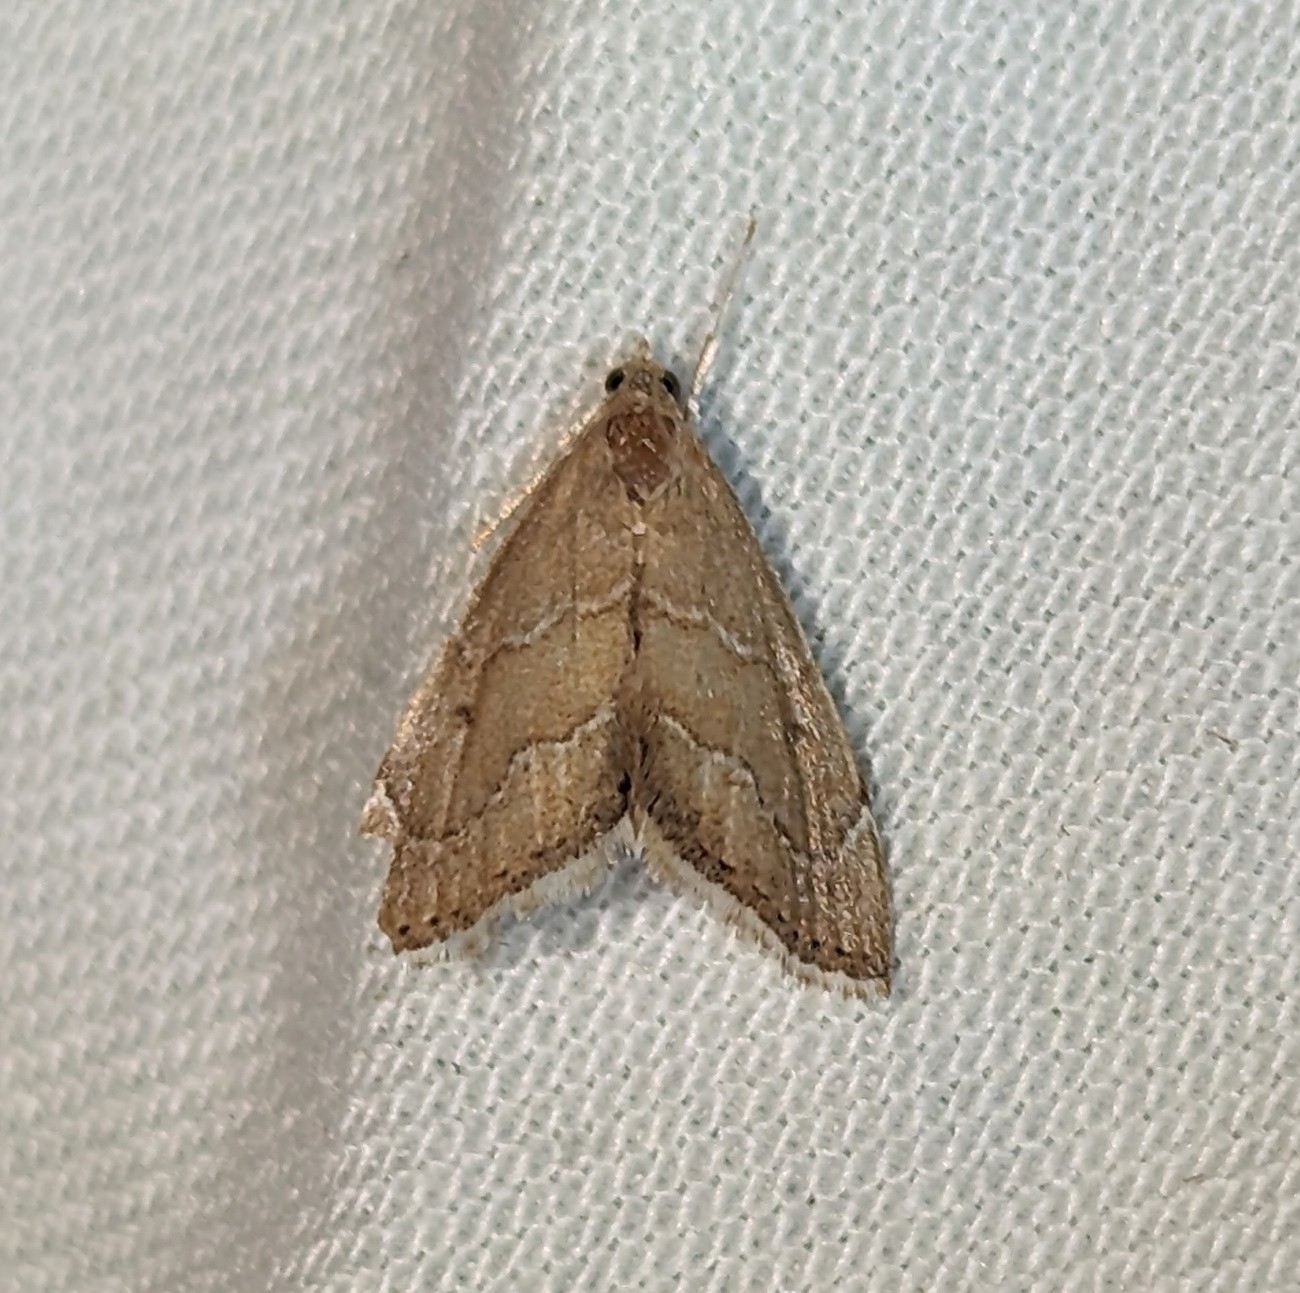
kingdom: Animalia
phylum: Arthropoda
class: Insecta
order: Lepidoptera
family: Crambidae
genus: Stegea
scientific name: Stegea salutalis
